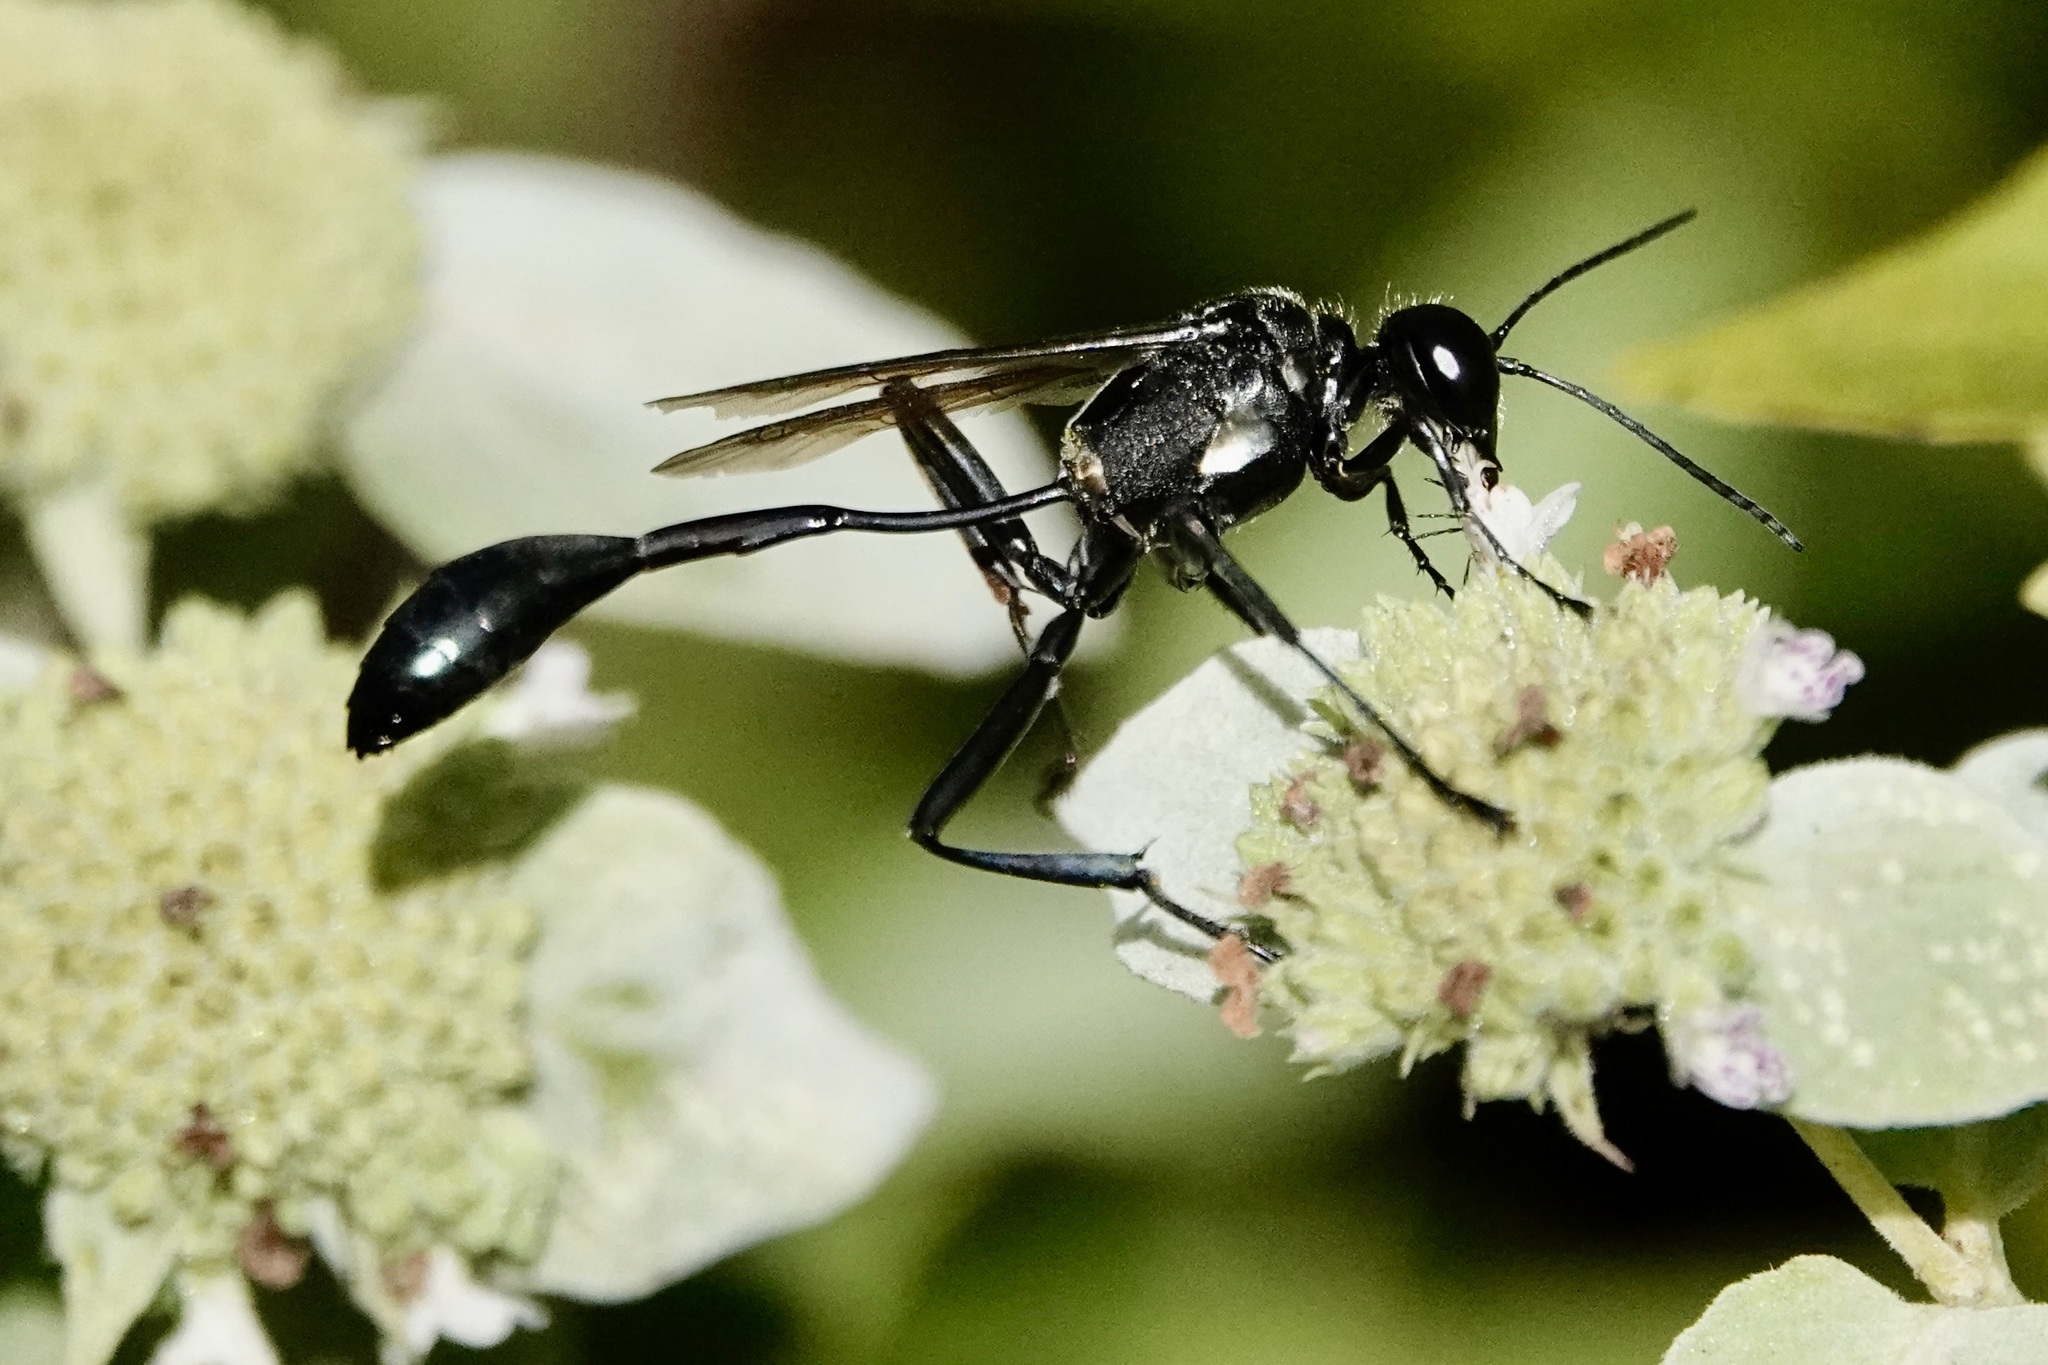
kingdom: Animalia
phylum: Arthropoda
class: Insecta
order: Hymenoptera
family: Sphecidae
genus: Eremnophila
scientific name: Eremnophila aureonotata
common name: Gold-marked thread-waisted wasp
